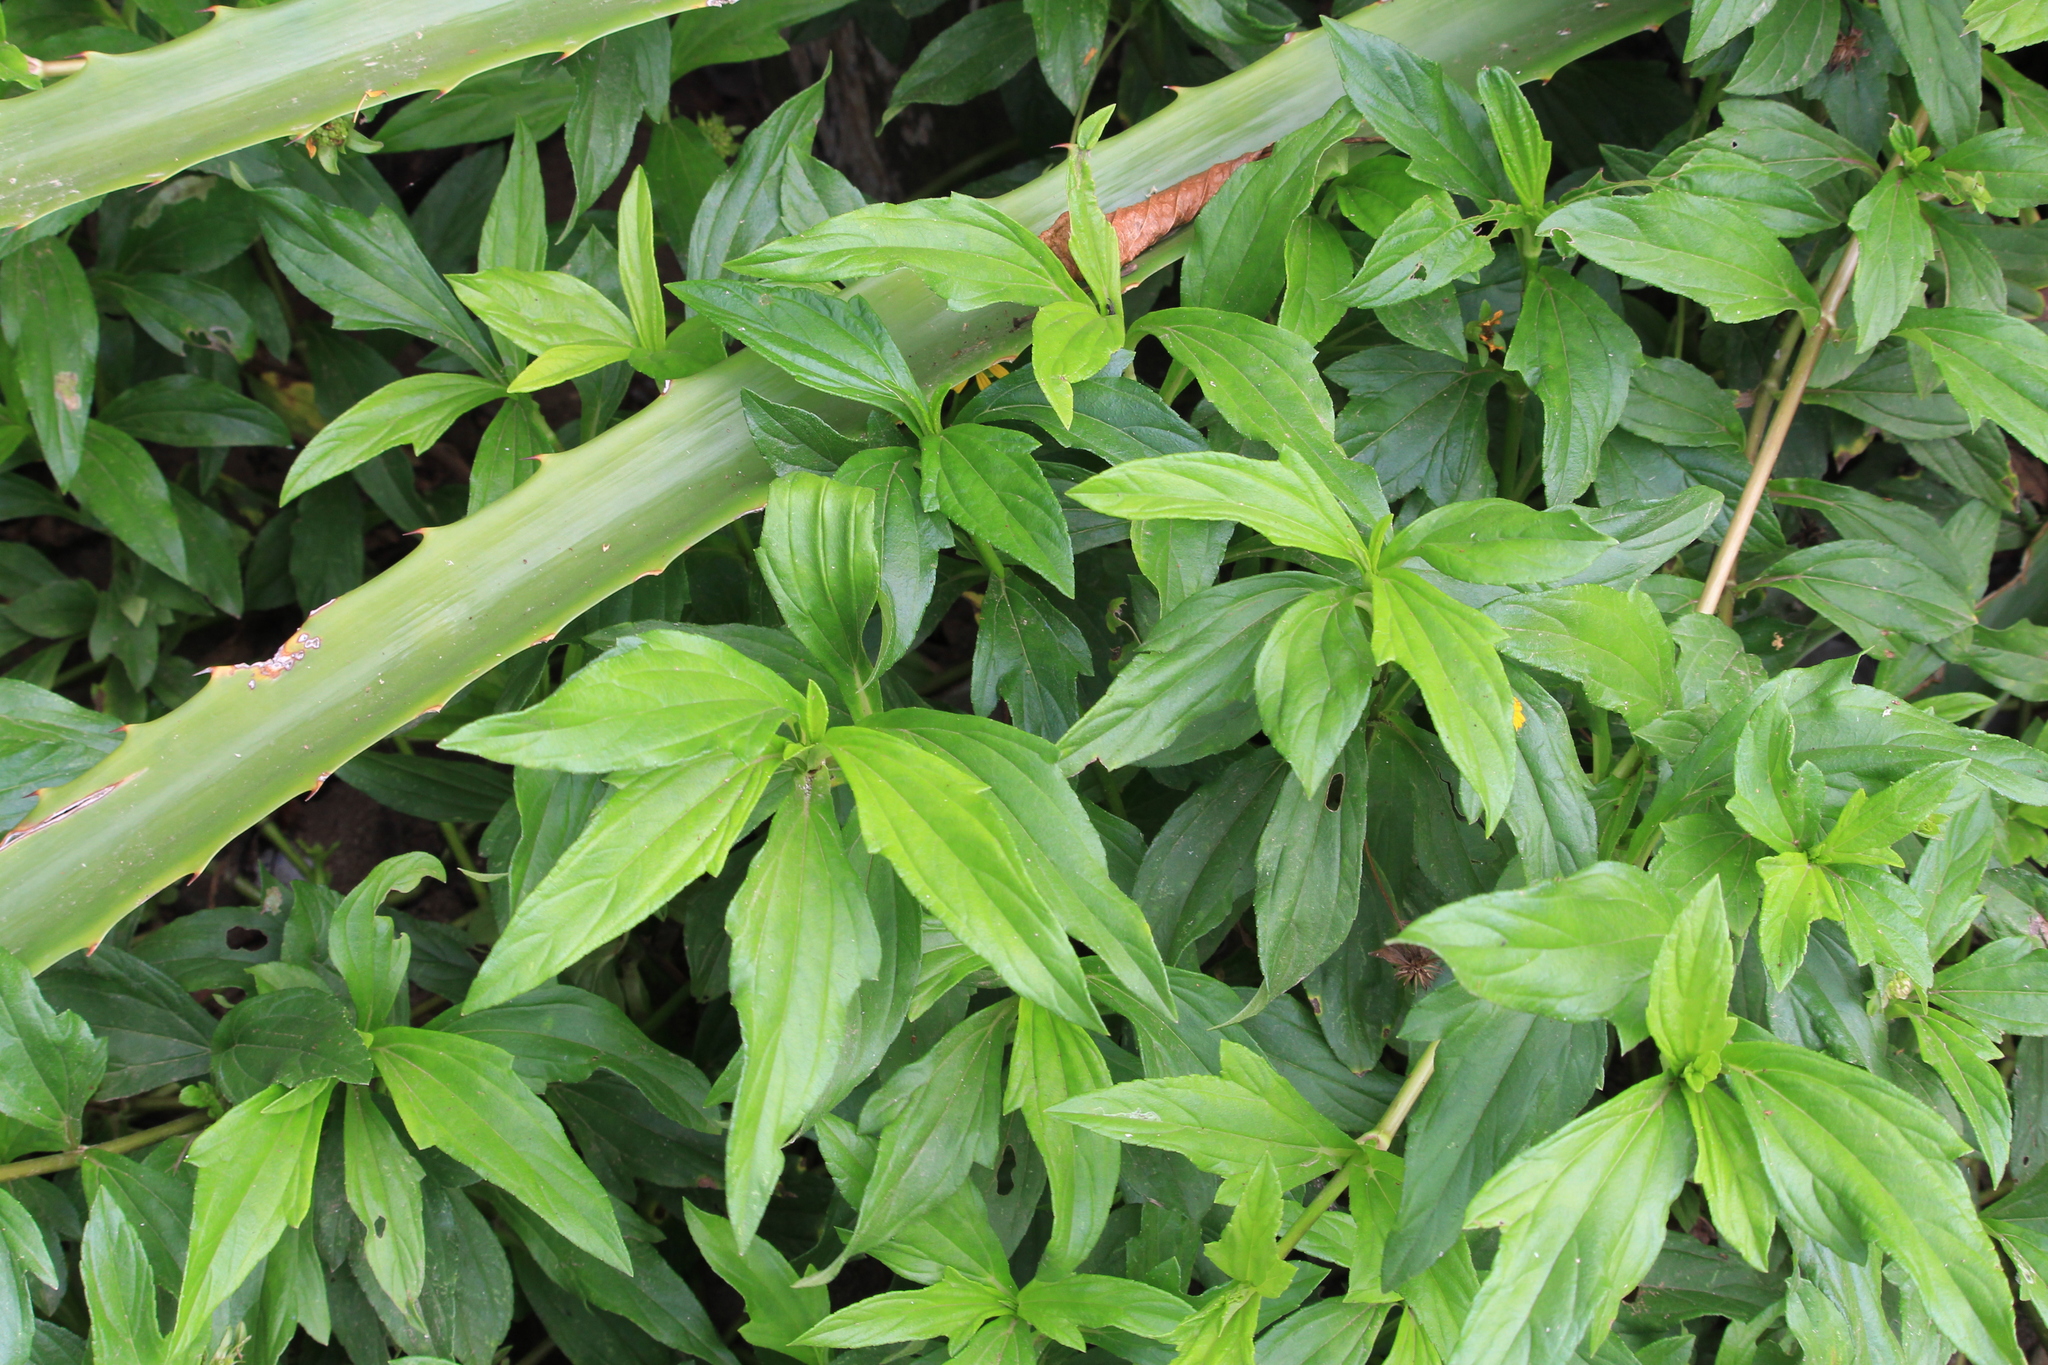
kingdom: Plantae
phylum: Tracheophyta
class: Magnoliopsida
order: Asterales
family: Asteraceae
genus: Sphagneticola
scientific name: Sphagneticola trilobata
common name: Bay biscayne creeping-oxeye
